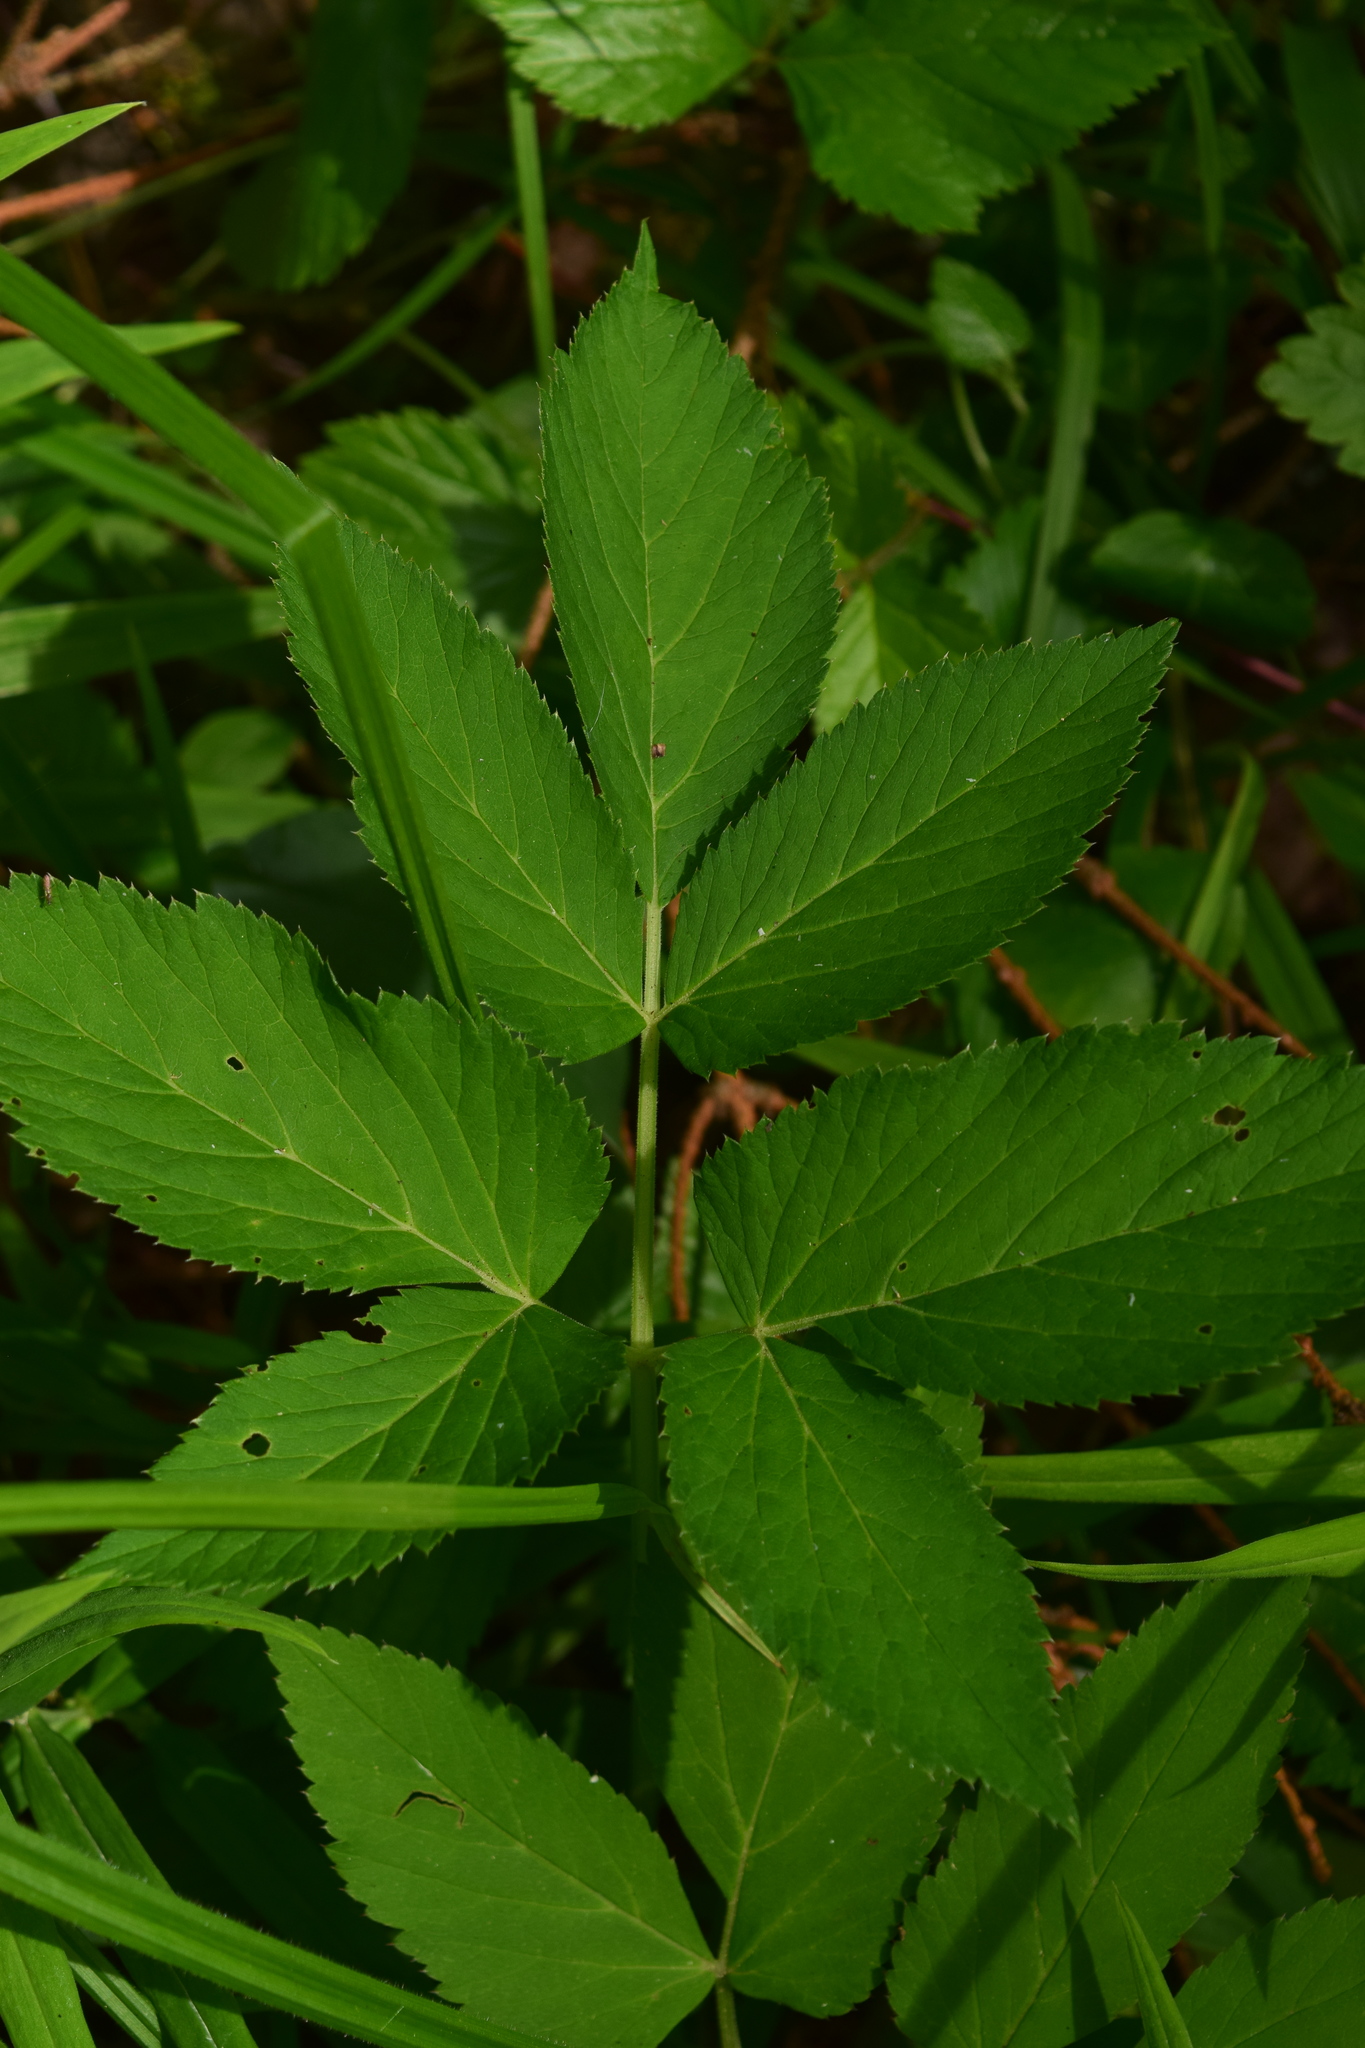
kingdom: Plantae
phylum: Tracheophyta
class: Magnoliopsida
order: Apiales
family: Apiaceae
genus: Aegopodium
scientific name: Aegopodium podagraria
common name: Ground-elder
